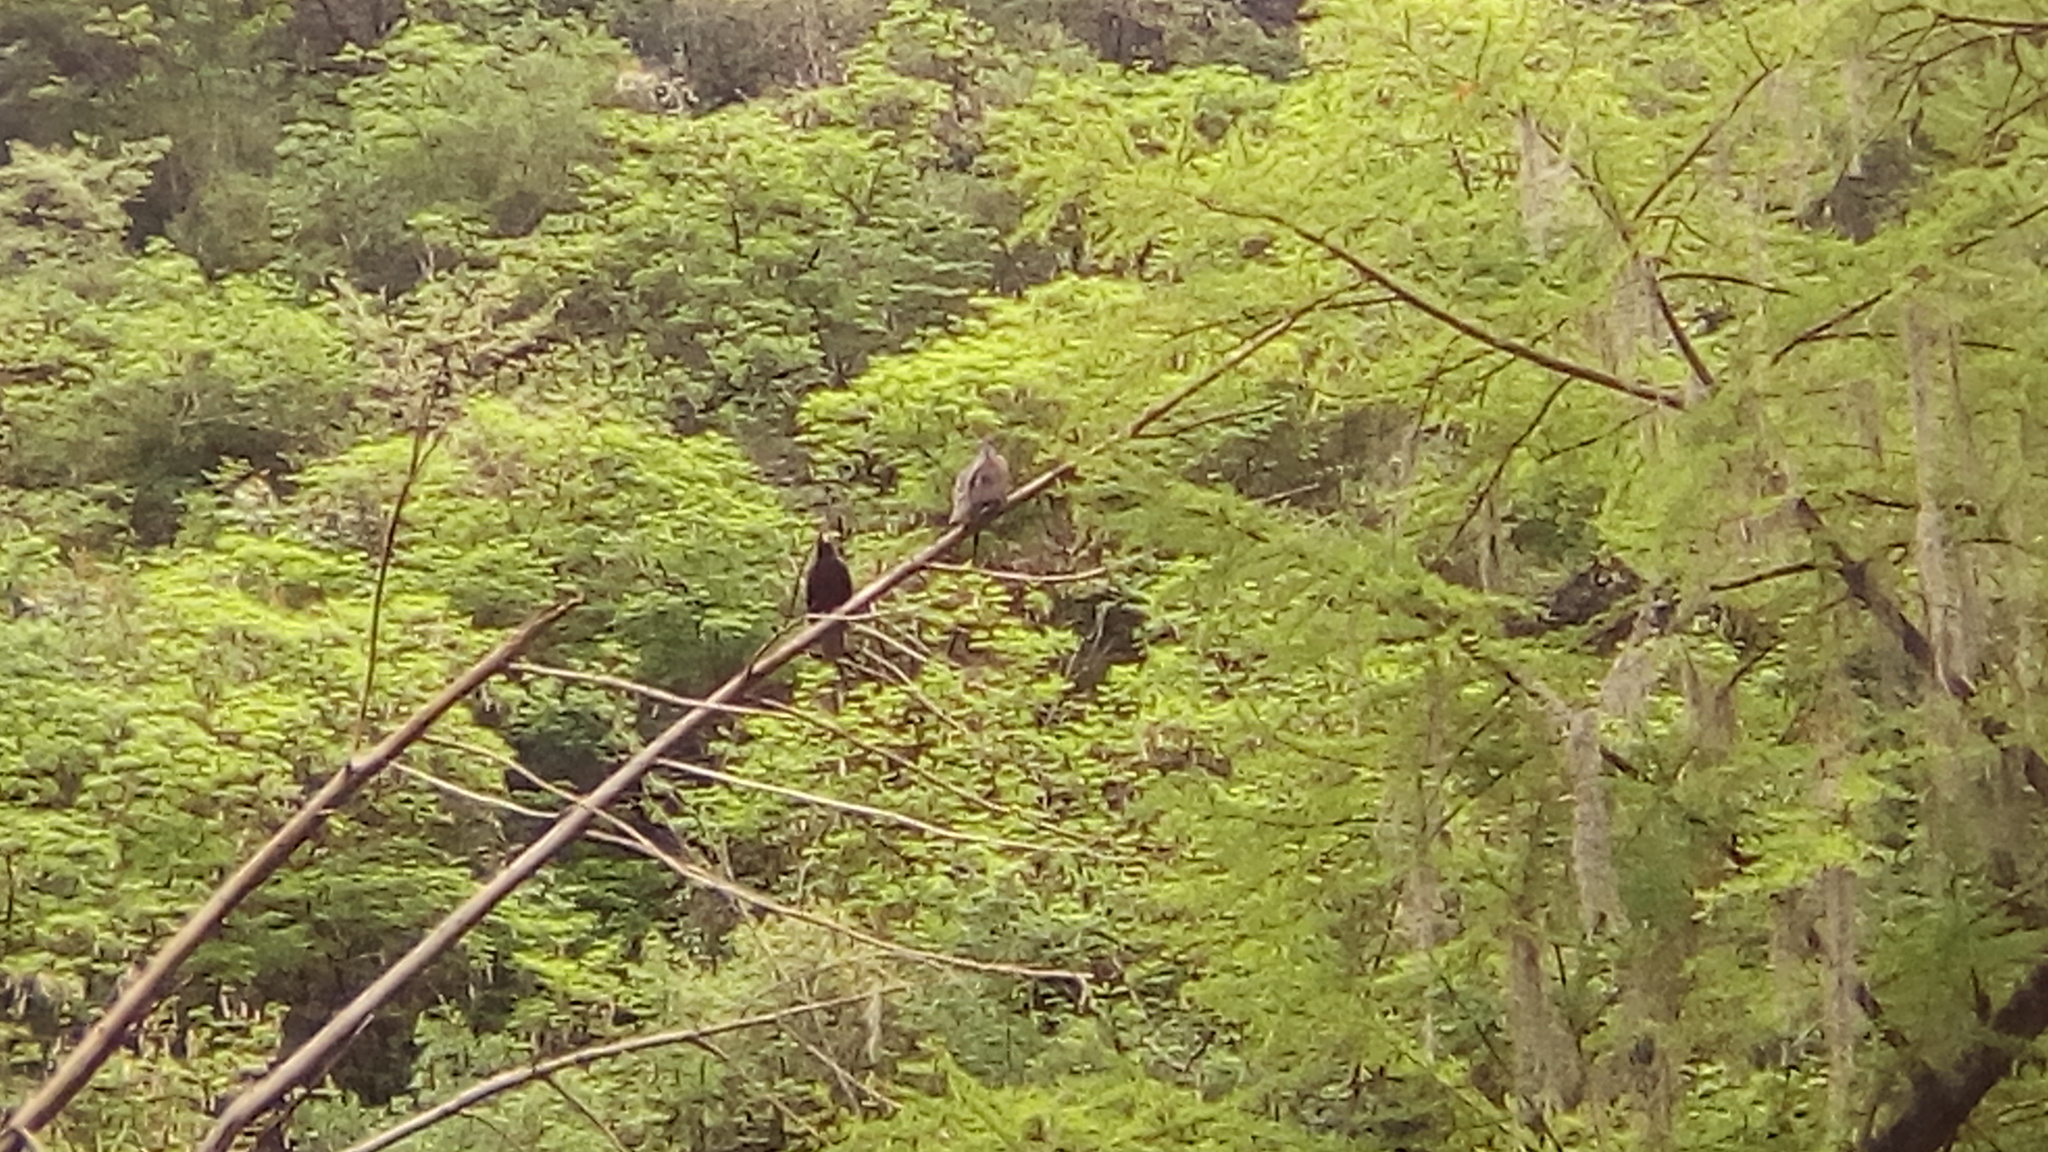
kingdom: Animalia
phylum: Chordata
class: Aves
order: Accipitriformes
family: Cathartidae
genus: Cathartes
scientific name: Cathartes aura
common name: Turkey vulture
